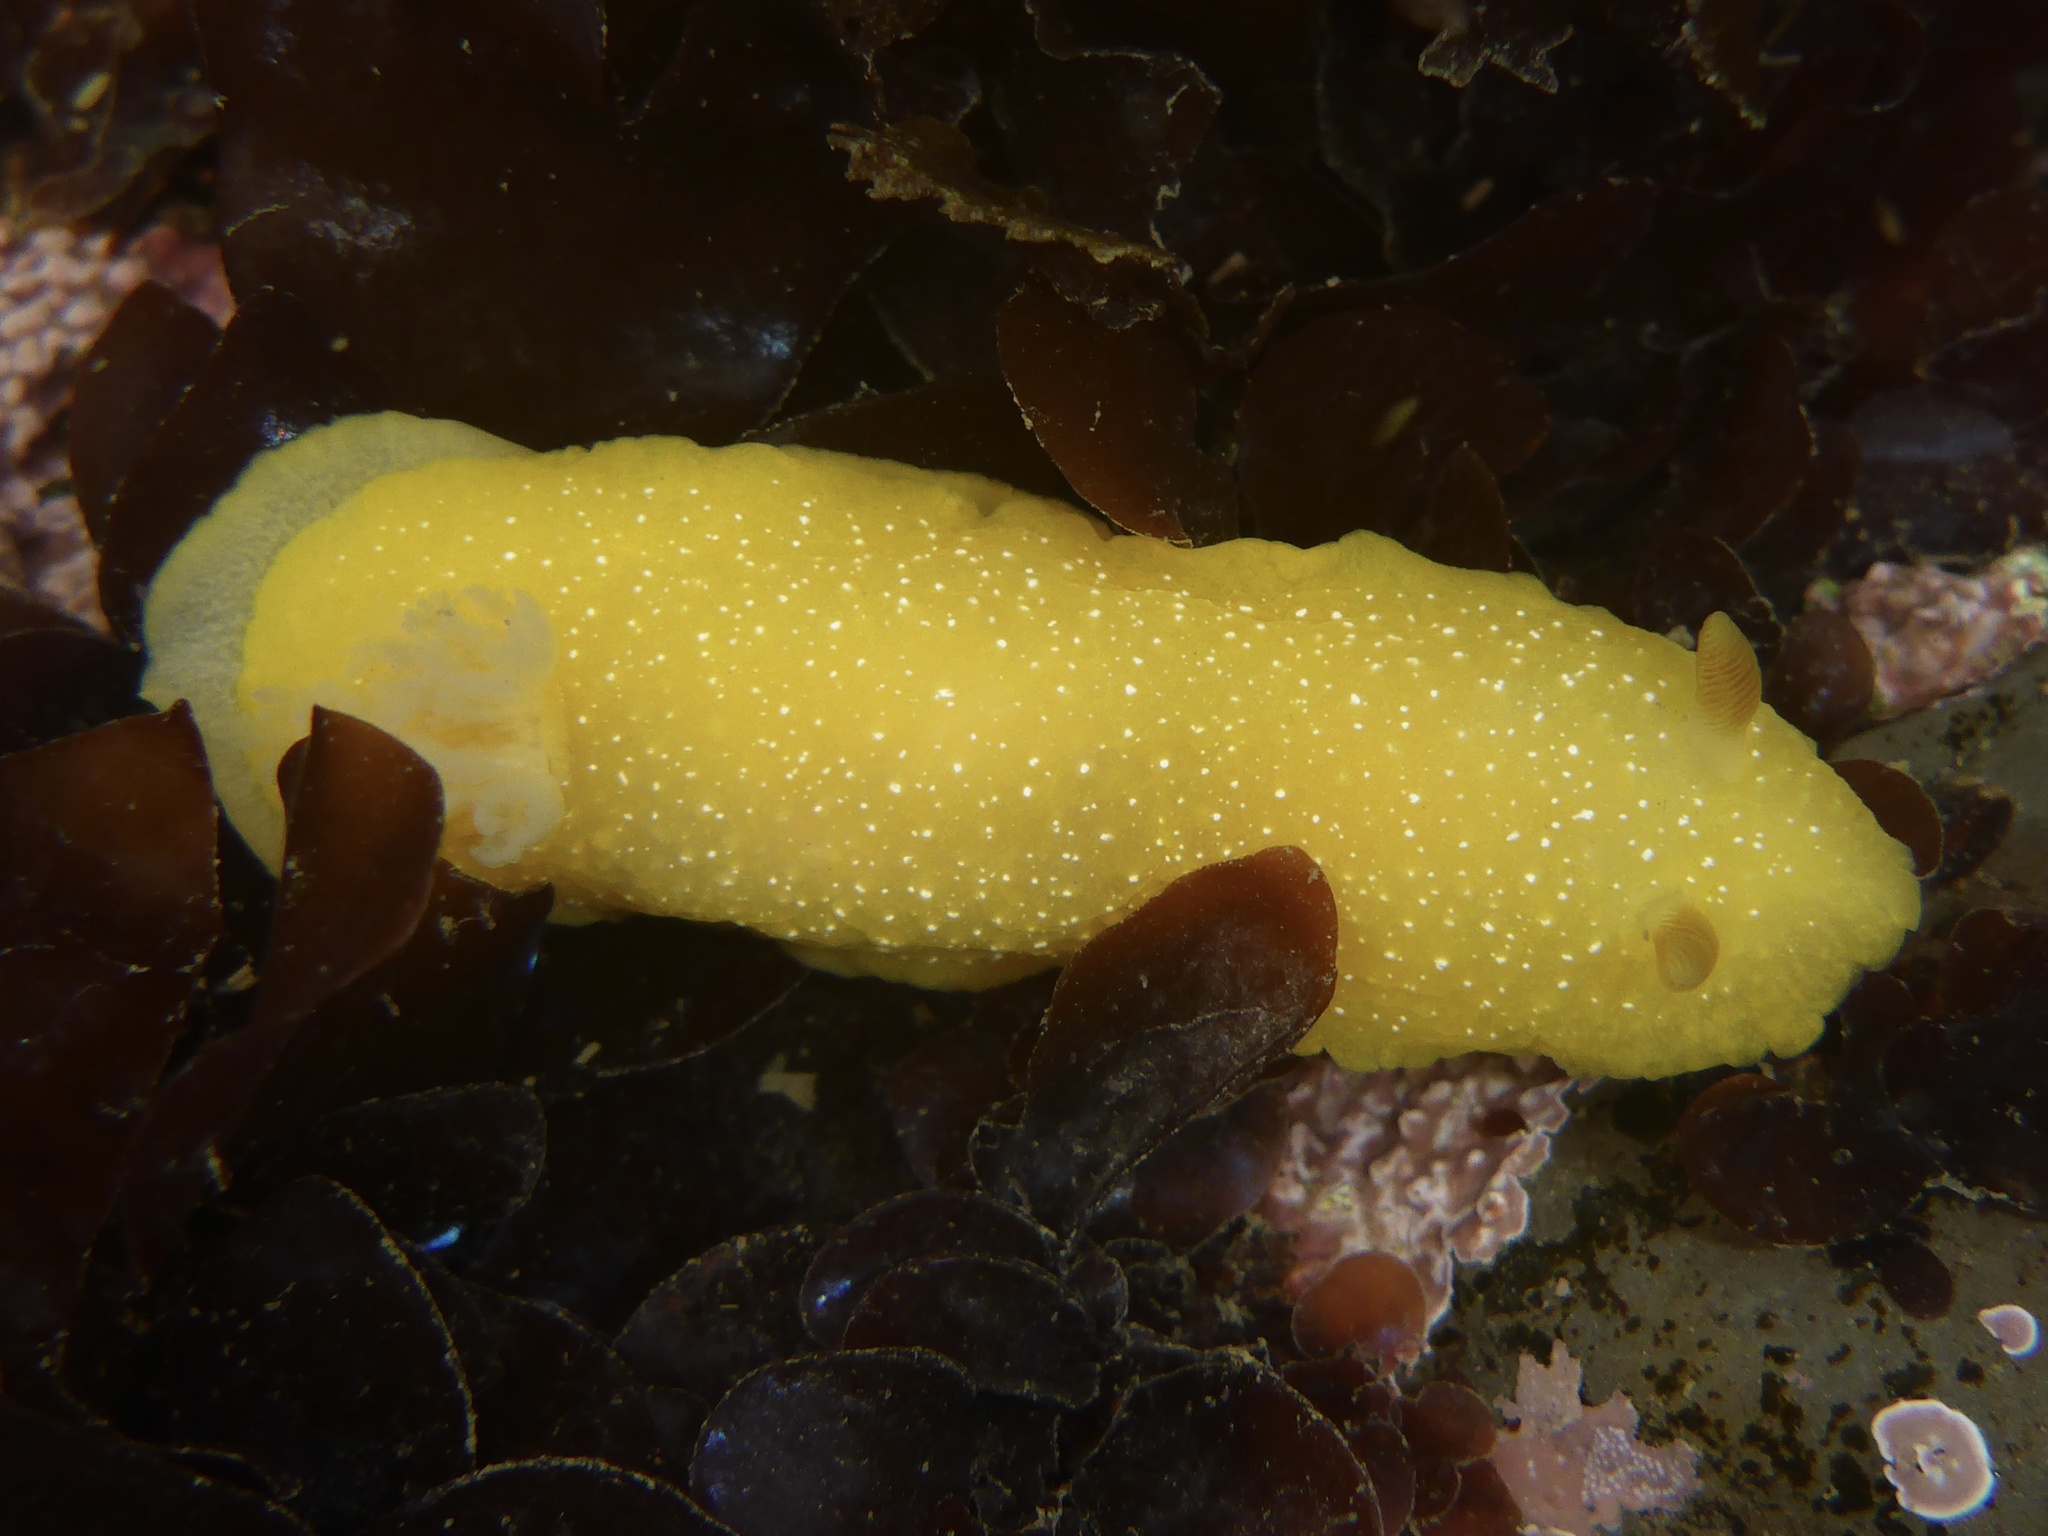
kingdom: Animalia
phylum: Mollusca
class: Gastropoda
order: Nudibranchia
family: Dendrodorididae
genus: Doriopsilla
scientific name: Doriopsilla fulva
